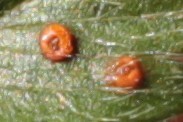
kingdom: Fungi
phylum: Basidiomycota
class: Pucciniomycetes
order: Pucciniales
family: Phragmidiaceae
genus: Phragmidium
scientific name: Phragmidium potentillae
